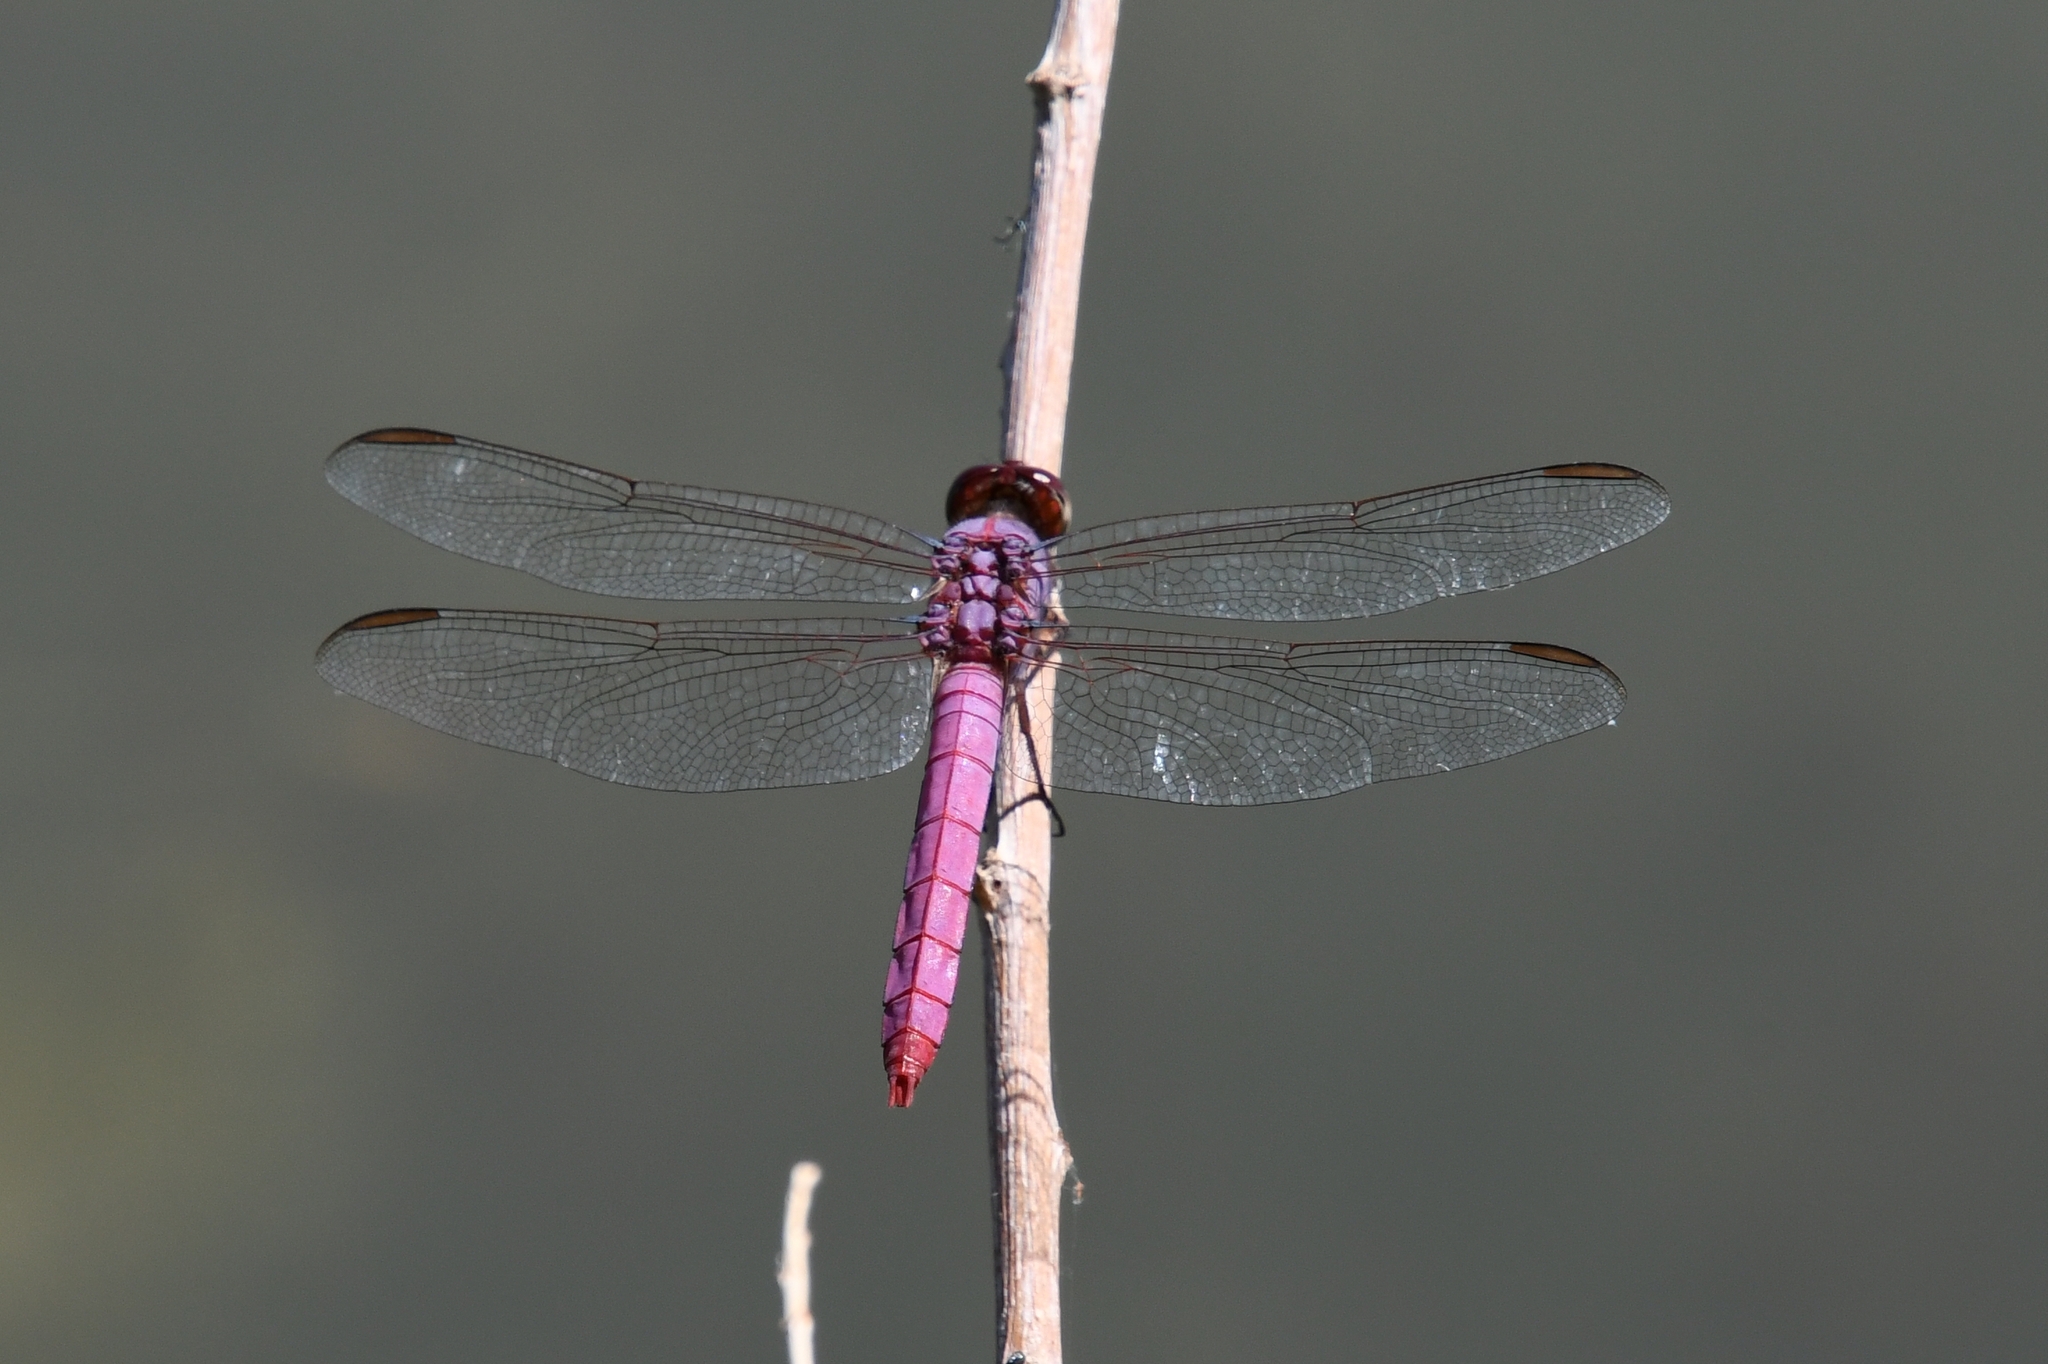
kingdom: Animalia
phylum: Arthropoda
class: Insecta
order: Odonata
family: Libellulidae
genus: Orthemis
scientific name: Orthemis ferruginea
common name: Roseate skimmer
